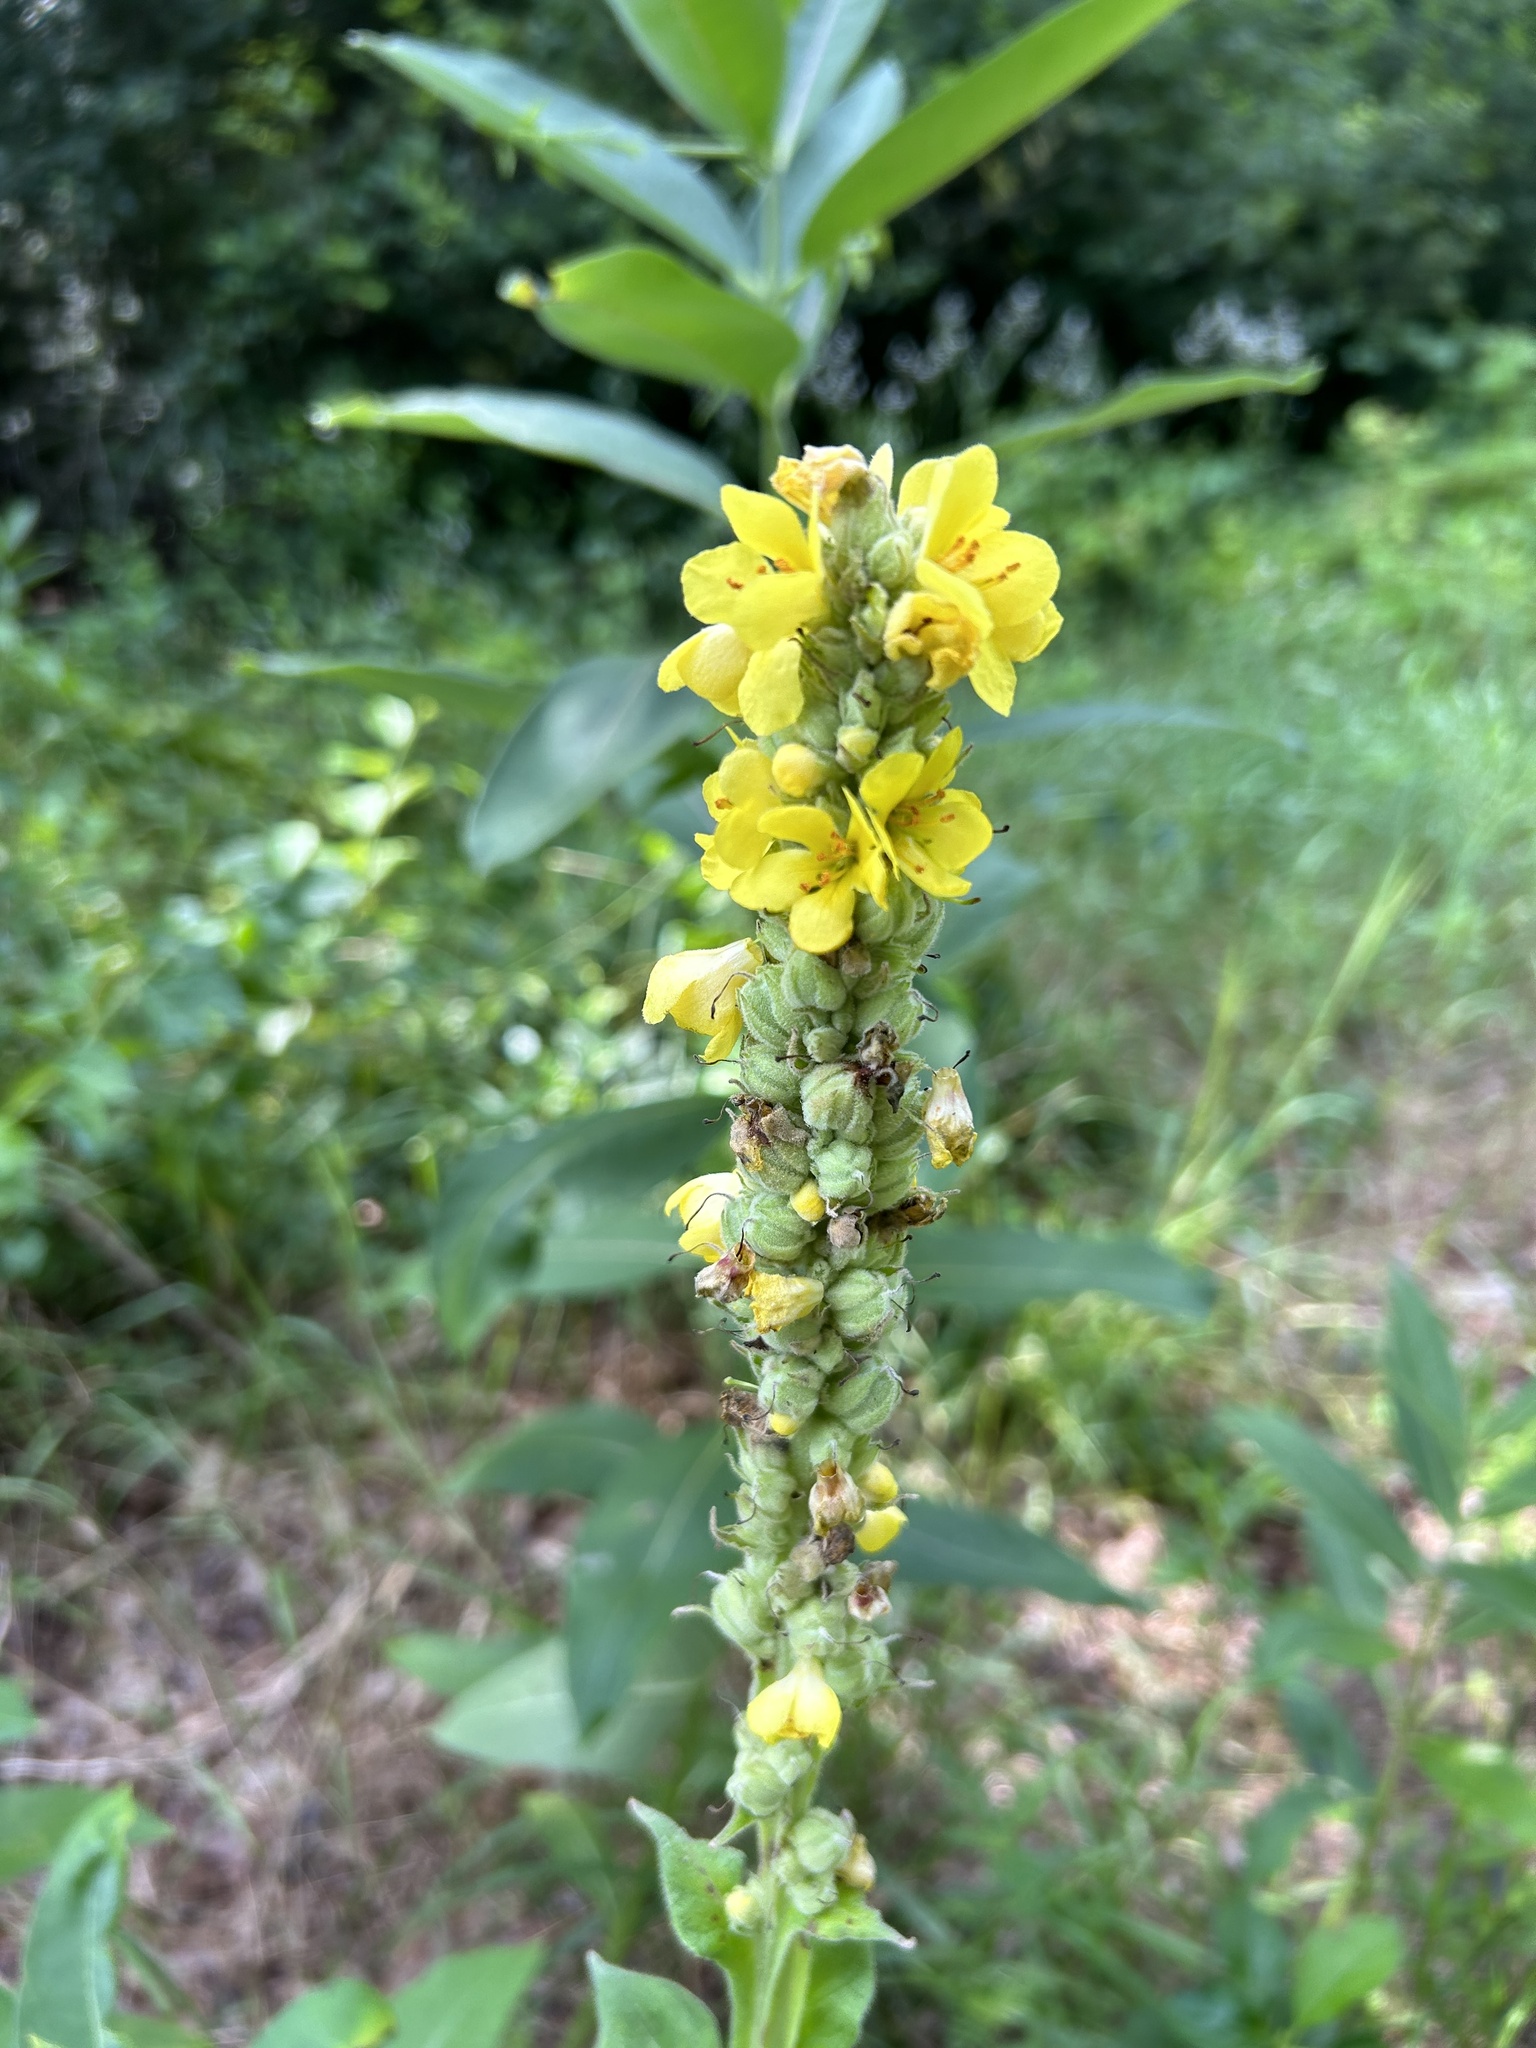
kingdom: Plantae
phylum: Tracheophyta
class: Magnoliopsida
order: Lamiales
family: Scrophulariaceae
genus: Verbascum
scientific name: Verbascum thapsus
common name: Common mullein
